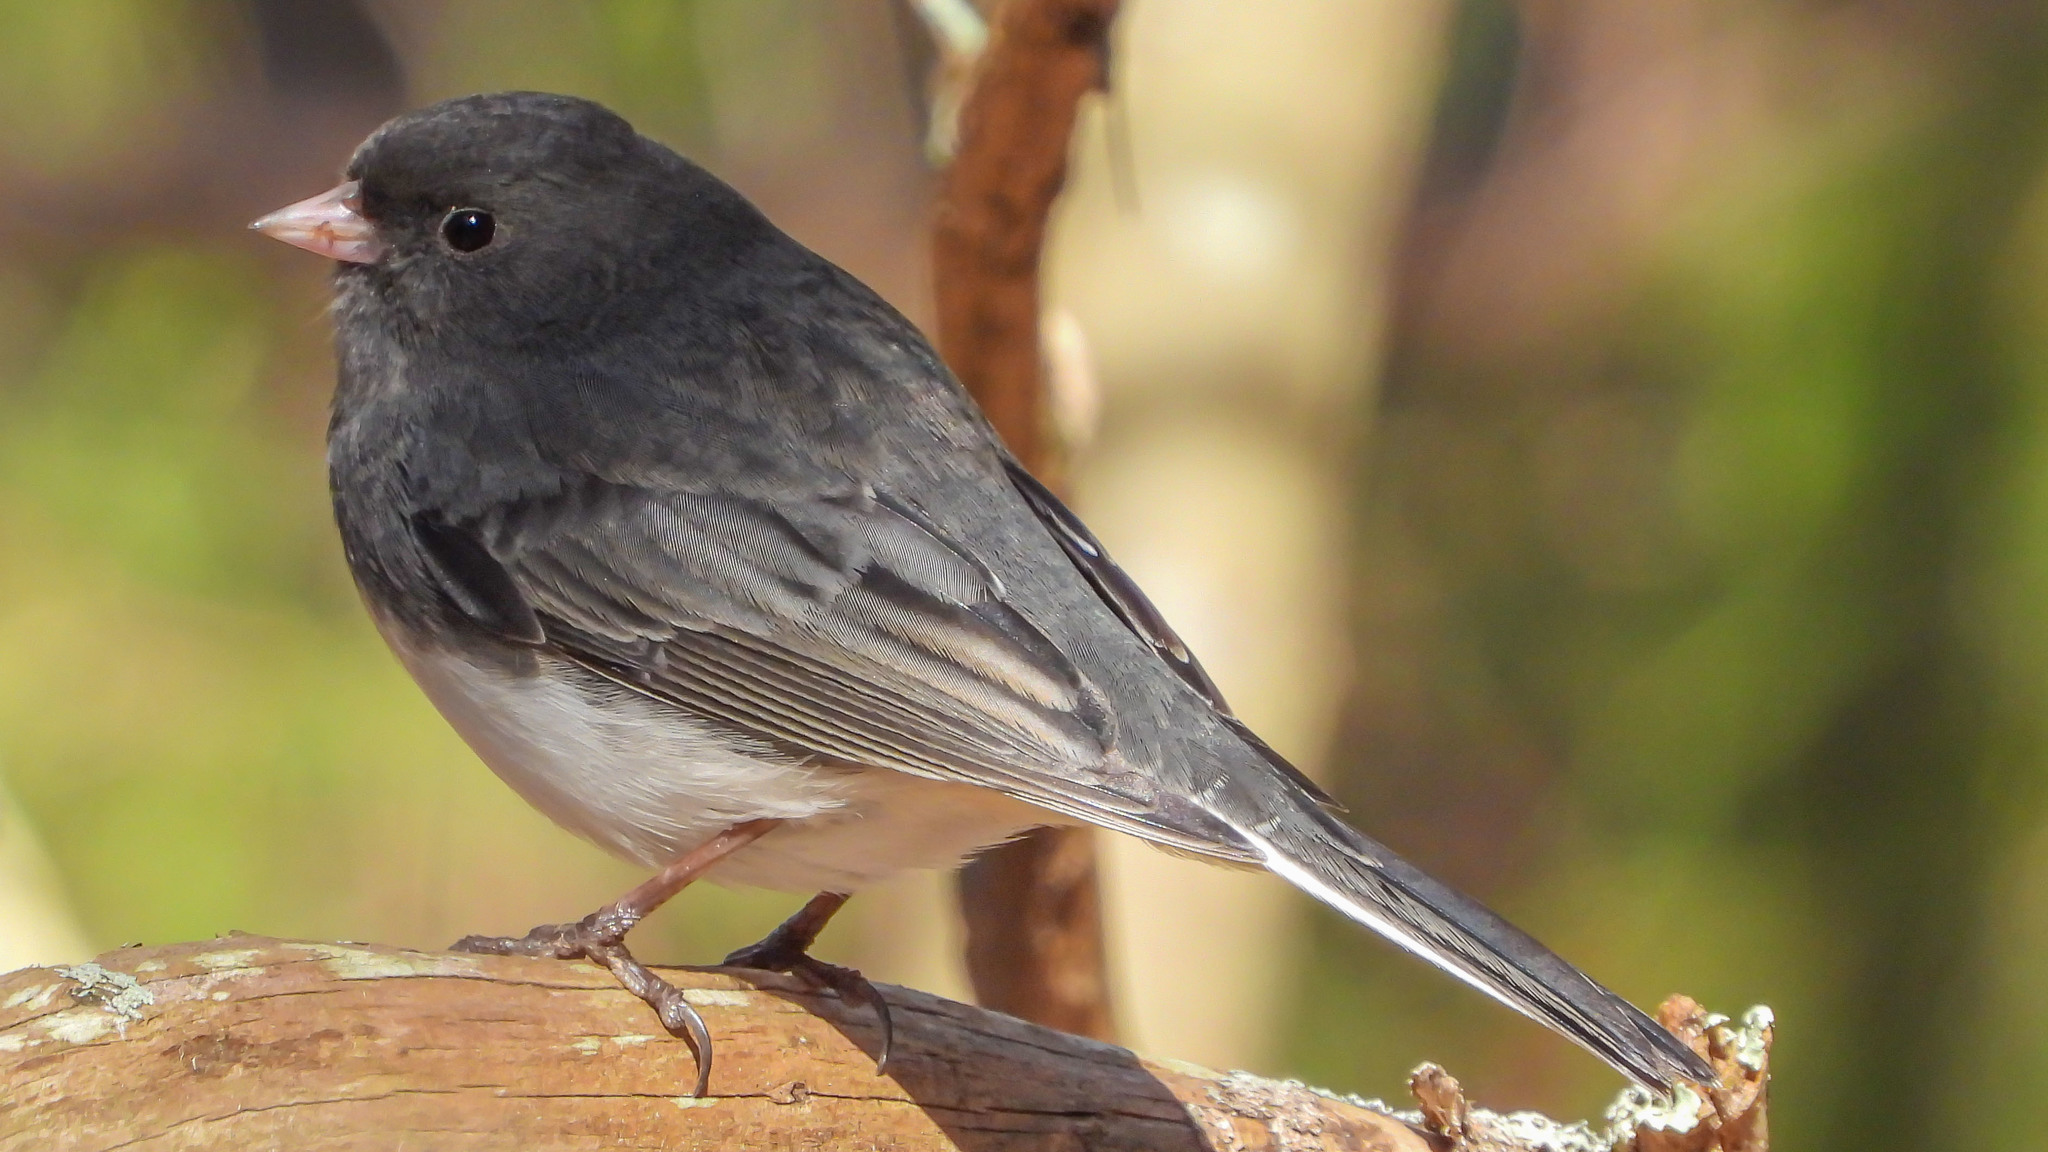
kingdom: Animalia
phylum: Chordata
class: Aves
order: Passeriformes
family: Passerellidae
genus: Junco
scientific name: Junco hyemalis
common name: Dark-eyed junco
